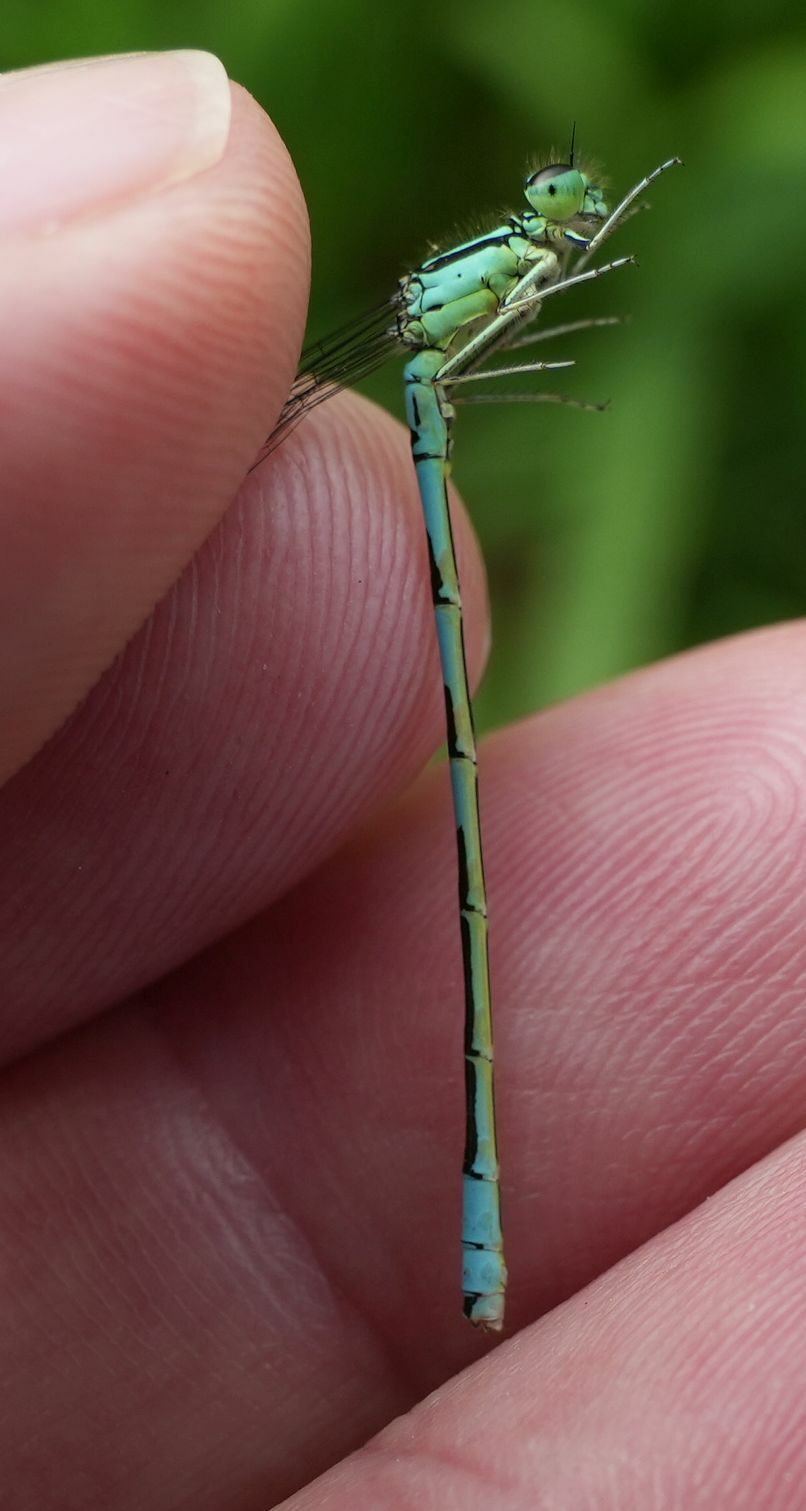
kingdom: Animalia
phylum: Arthropoda
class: Insecta
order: Odonata
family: Coenagrionidae
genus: Coenagrion
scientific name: Coenagrion resolutum
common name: Taiga bluet
